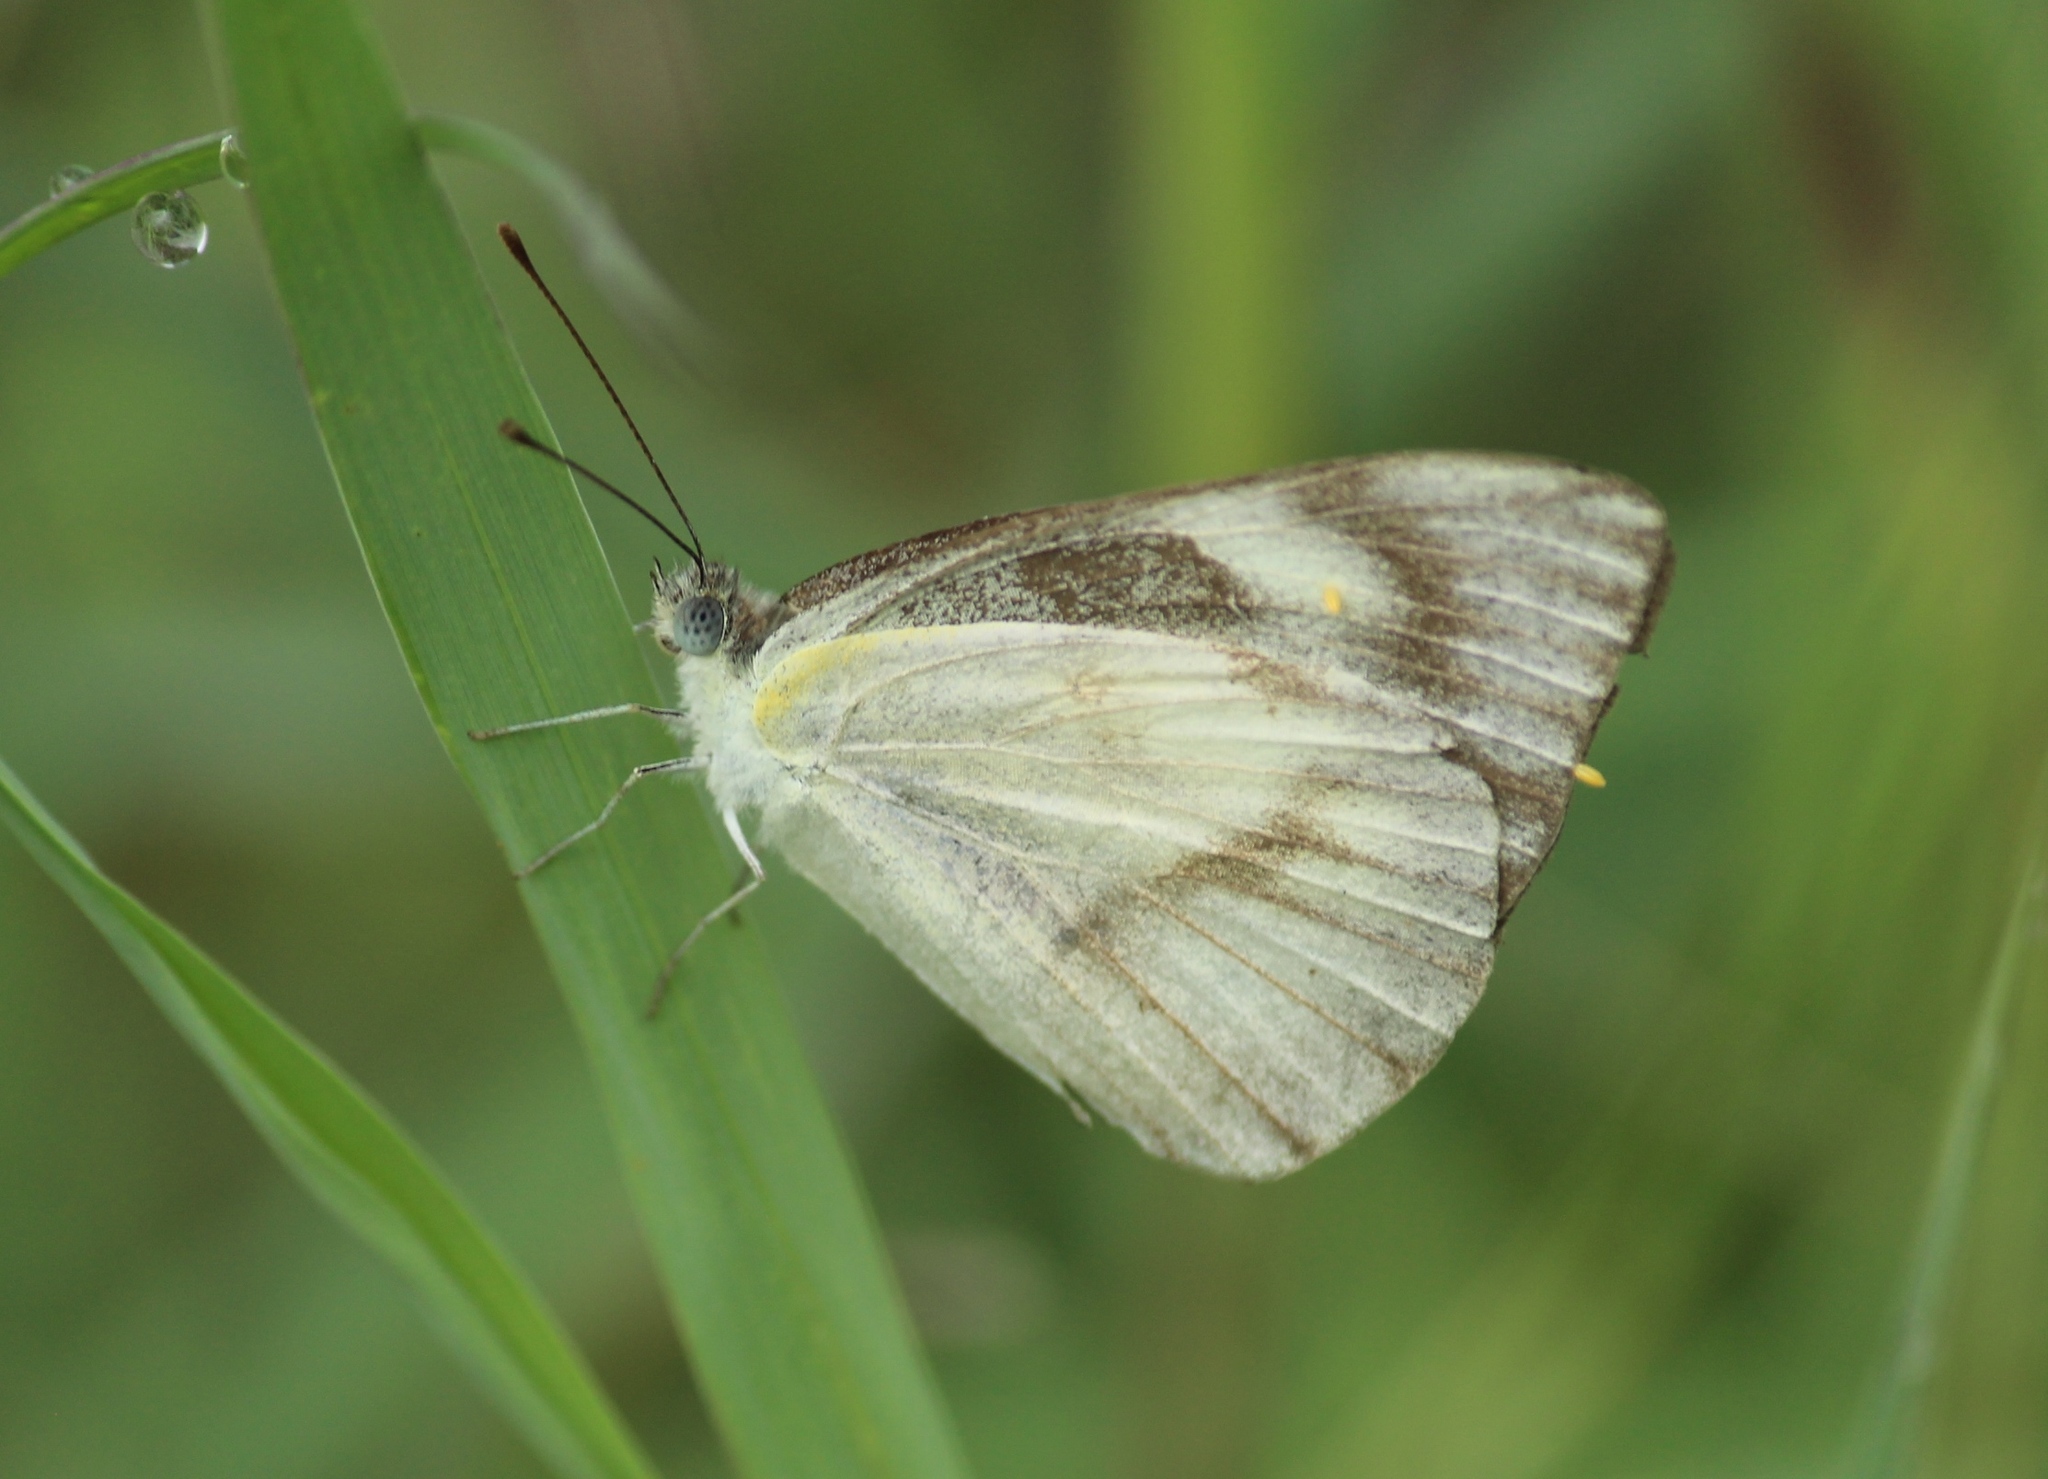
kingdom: Animalia
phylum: Arthropoda
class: Insecta
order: Lepidoptera
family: Pieridae
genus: Appias
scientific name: Appias libythea
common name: Striped albatross
